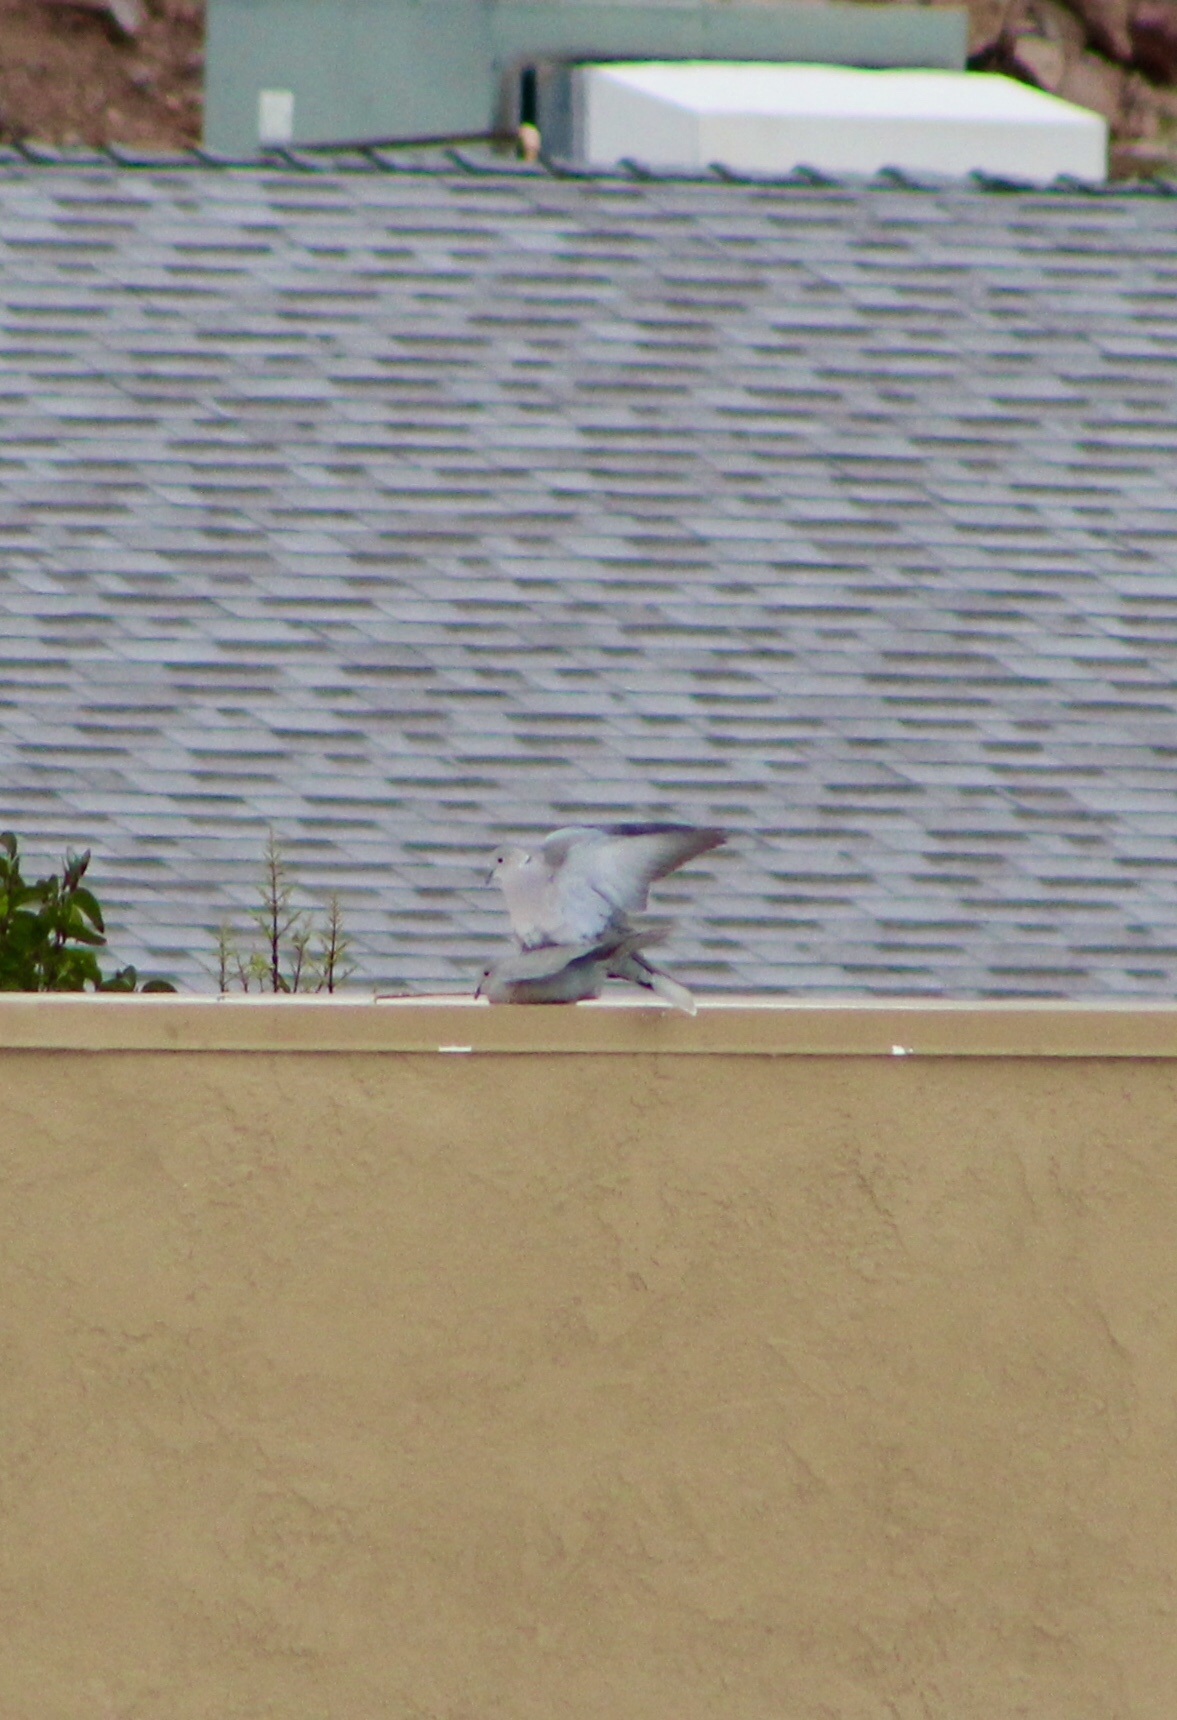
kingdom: Animalia
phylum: Chordata
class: Aves
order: Columbiformes
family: Columbidae
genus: Streptopelia
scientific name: Streptopelia decaocto
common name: Eurasian collared dove
